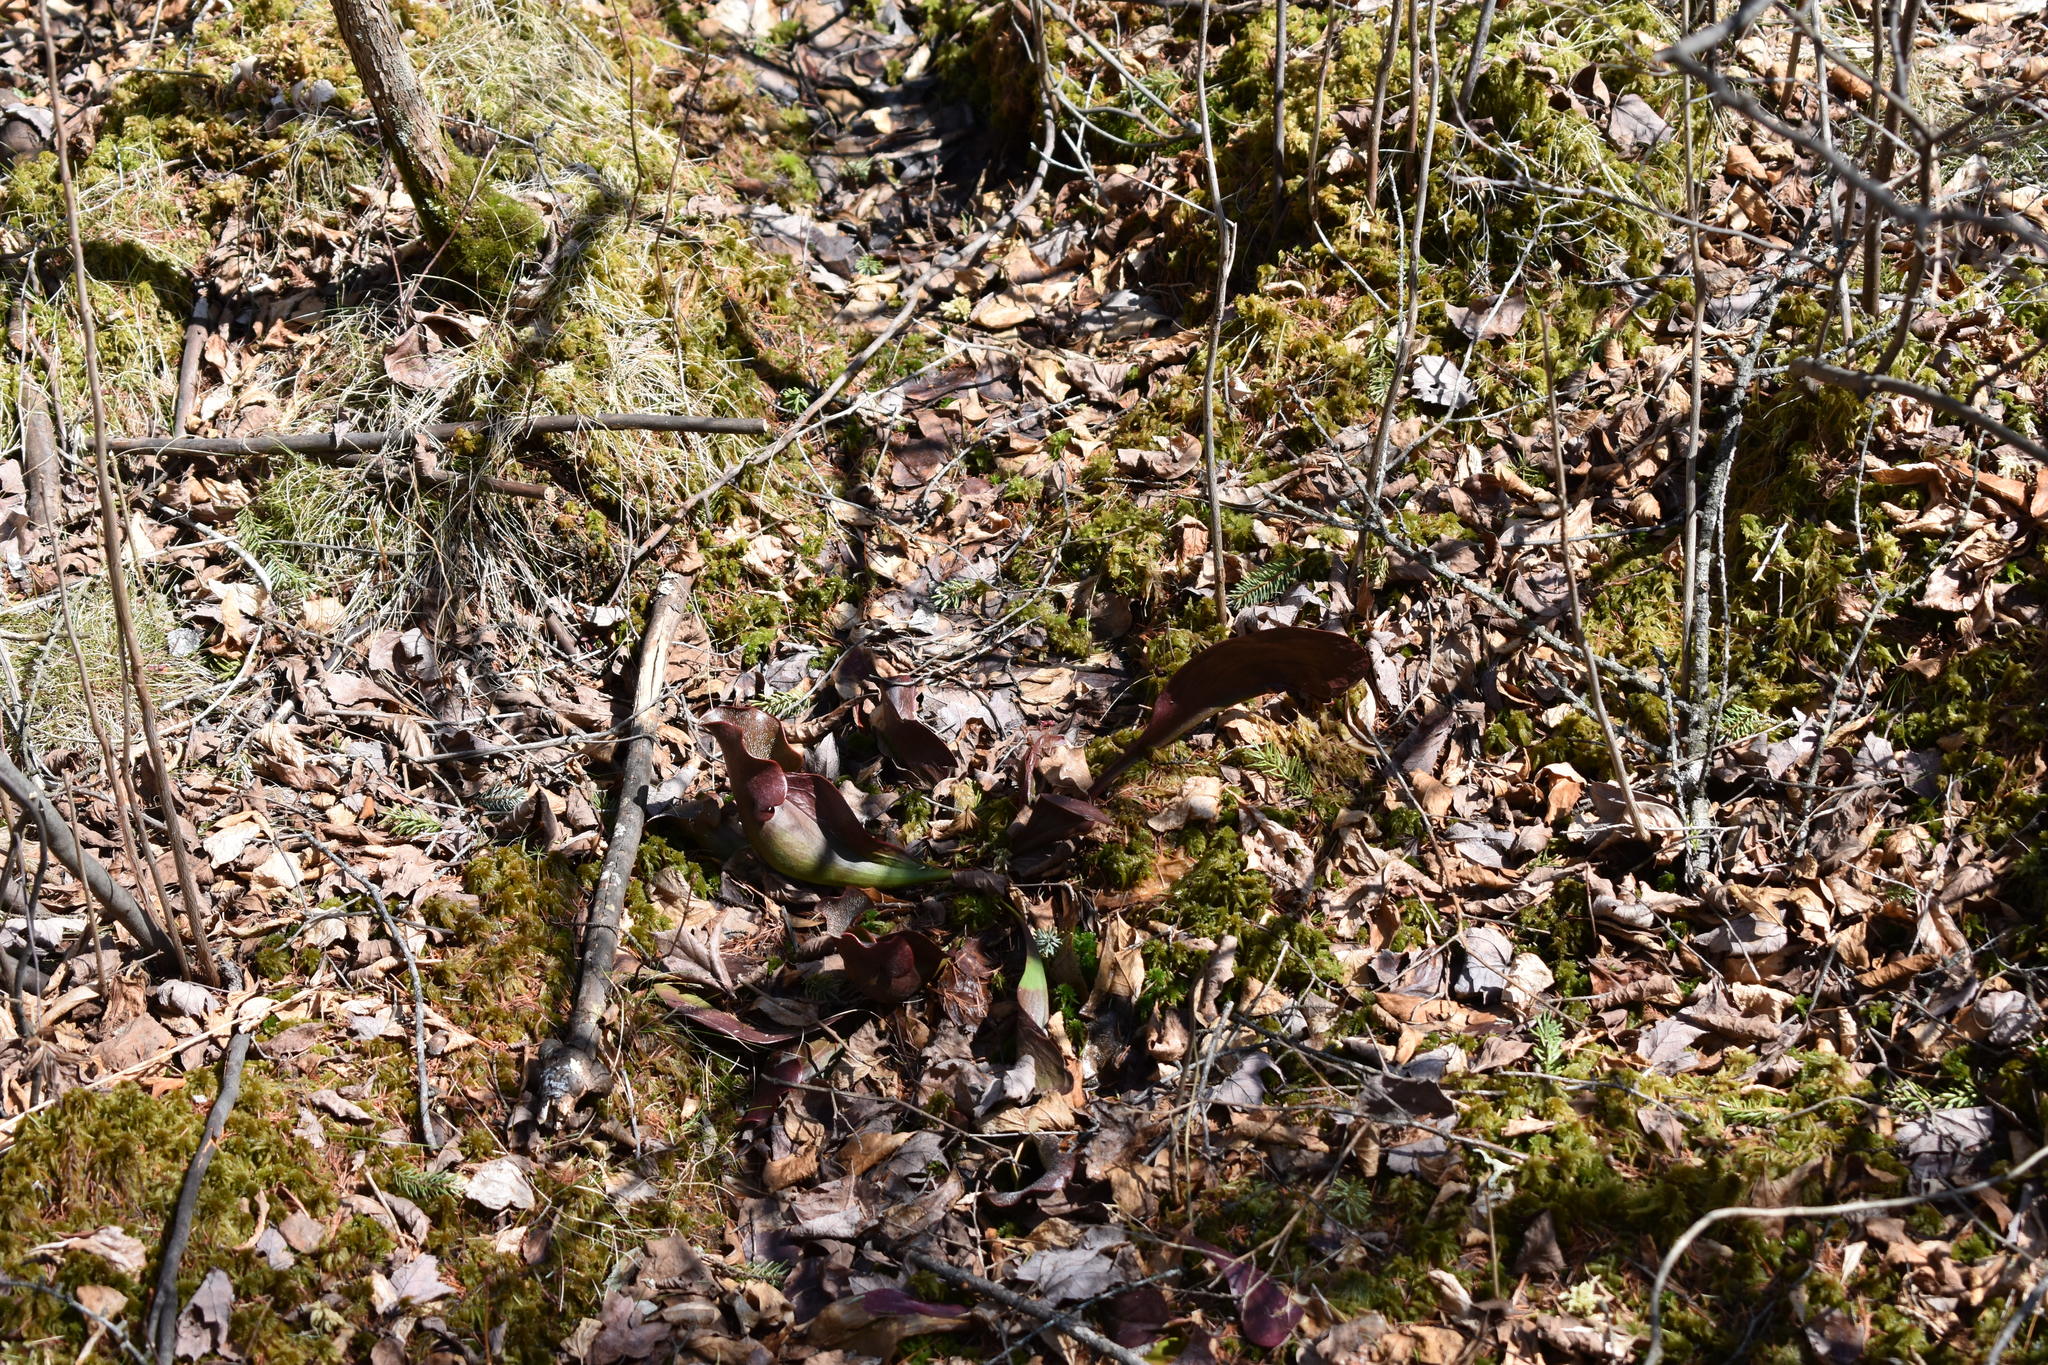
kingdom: Plantae
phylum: Tracheophyta
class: Magnoliopsida
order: Ericales
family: Sarraceniaceae
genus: Sarracenia
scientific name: Sarracenia purpurea
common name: Pitcherplant
